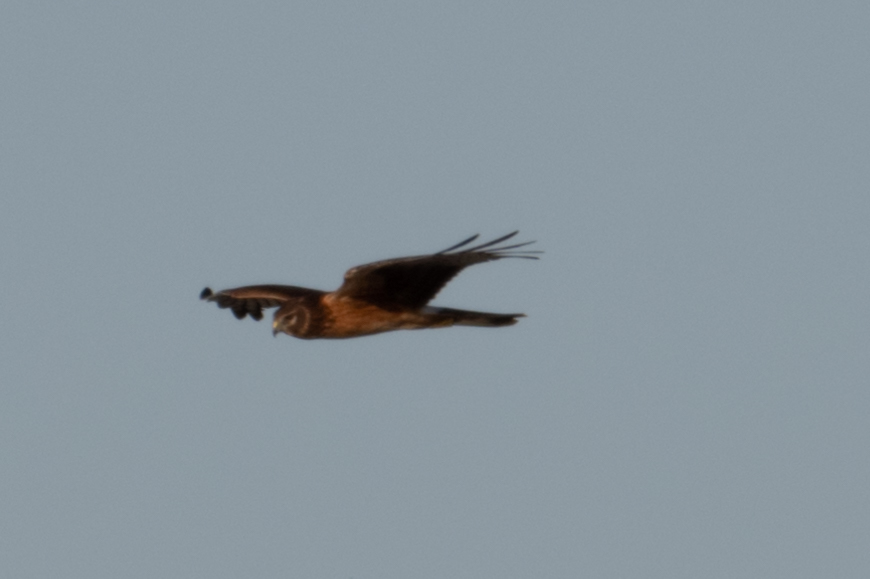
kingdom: Animalia
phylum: Chordata
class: Aves
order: Accipitriformes
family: Accipitridae
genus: Circus
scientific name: Circus cyaneus
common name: Hen harrier
